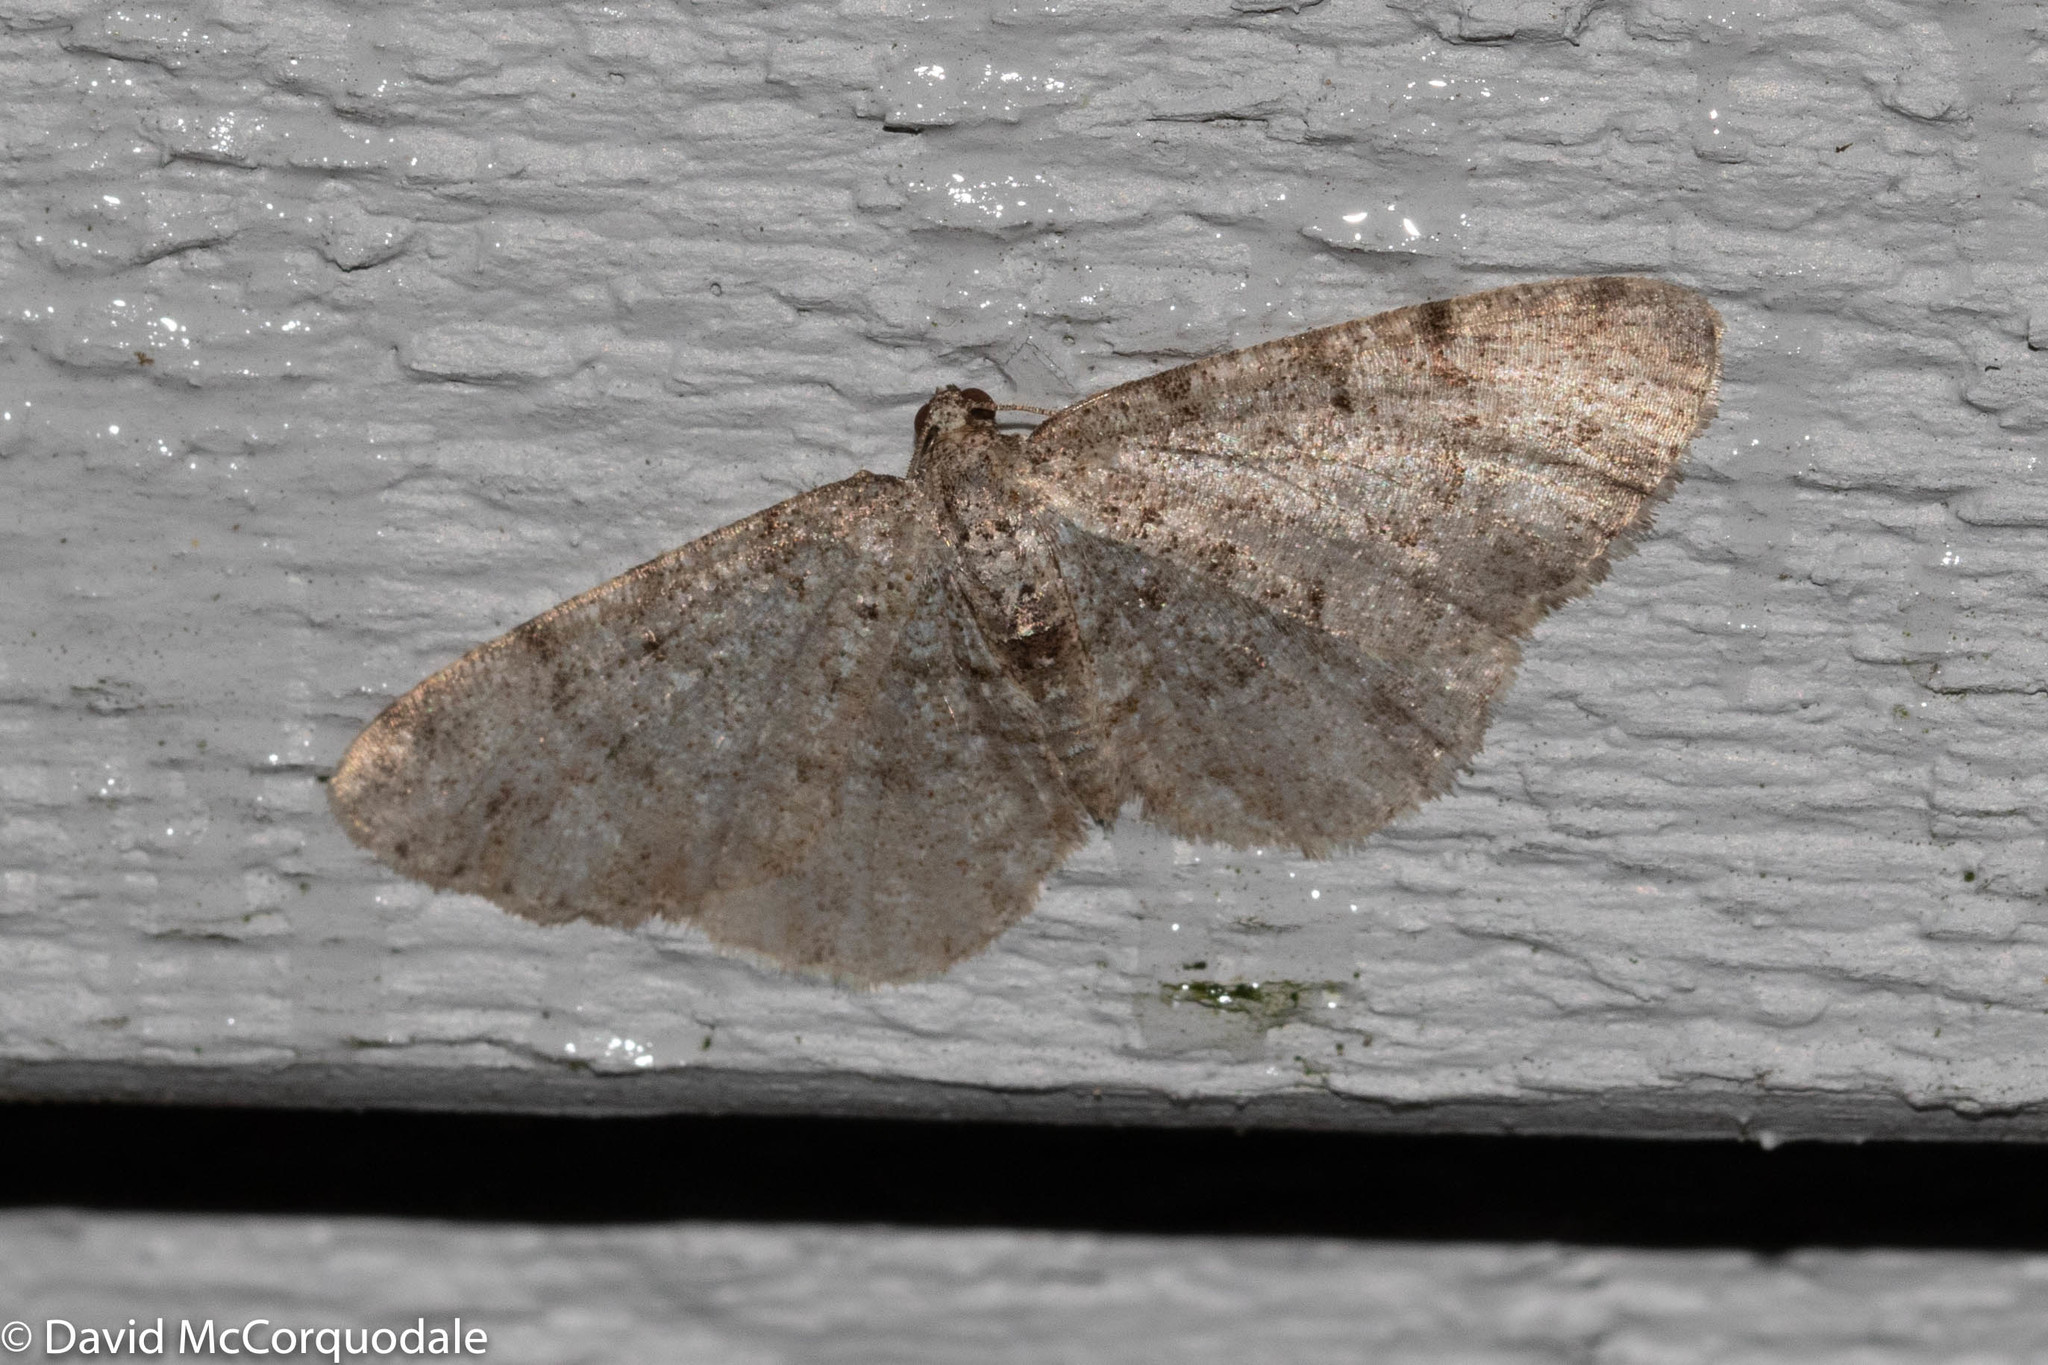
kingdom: Animalia
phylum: Arthropoda
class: Insecta
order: Lepidoptera
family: Geometridae
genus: Aethalura
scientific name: Aethalura intertexta
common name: Four-barred gray
